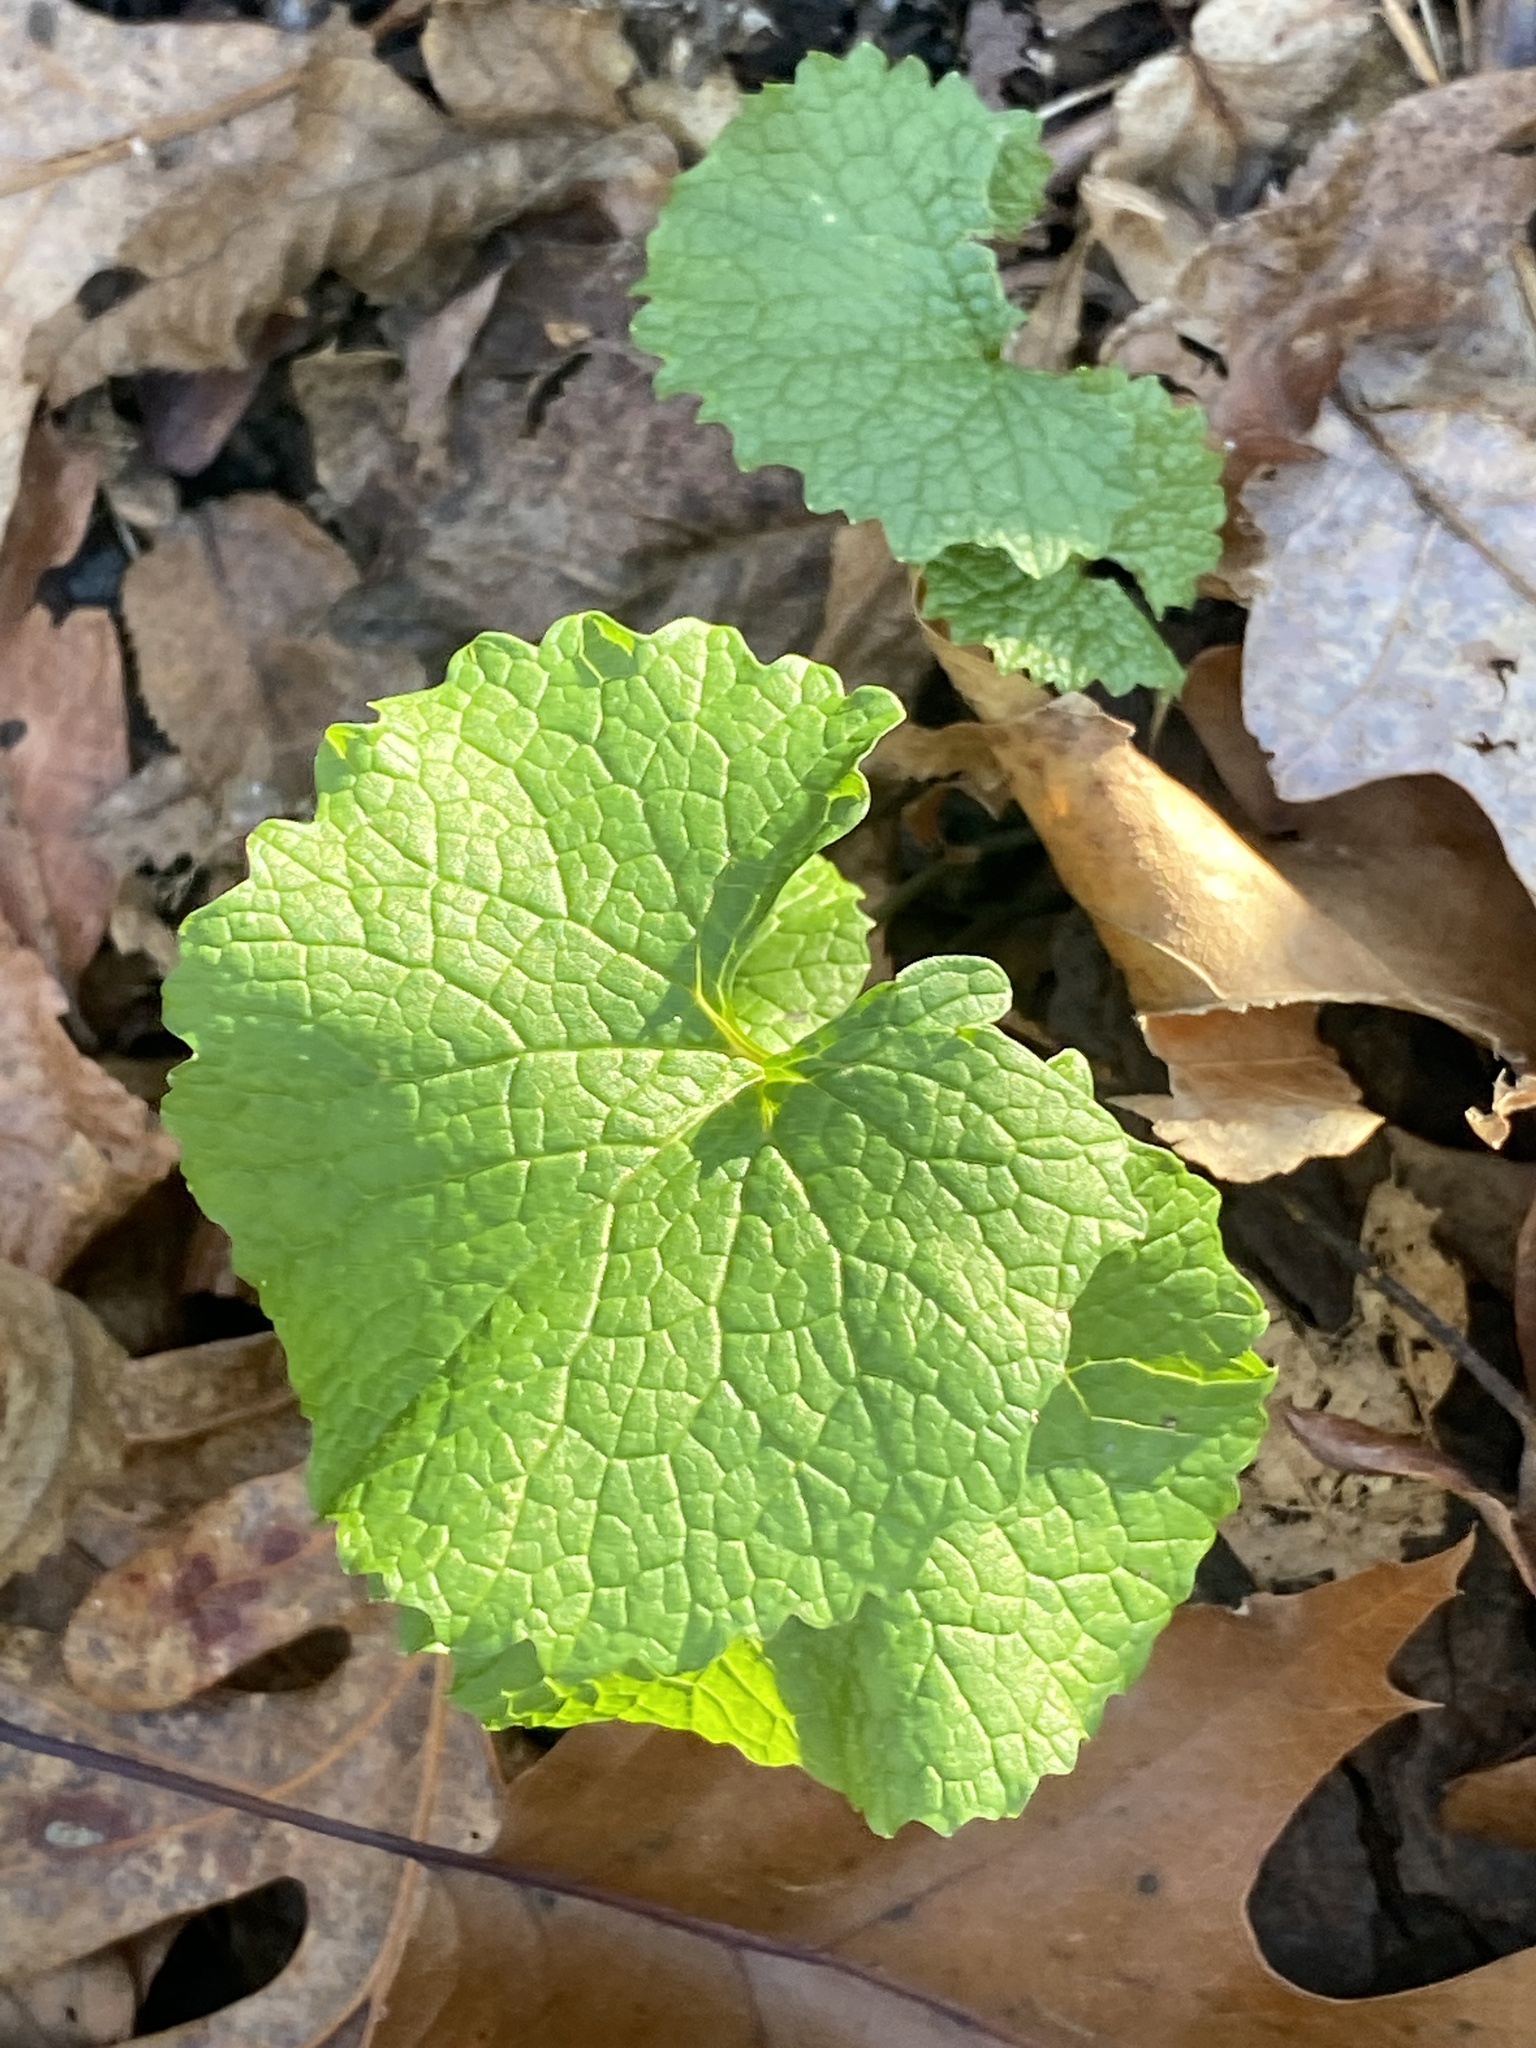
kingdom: Plantae
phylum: Tracheophyta
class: Magnoliopsida
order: Brassicales
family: Brassicaceae
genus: Alliaria
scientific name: Alliaria petiolata
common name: Garlic mustard
